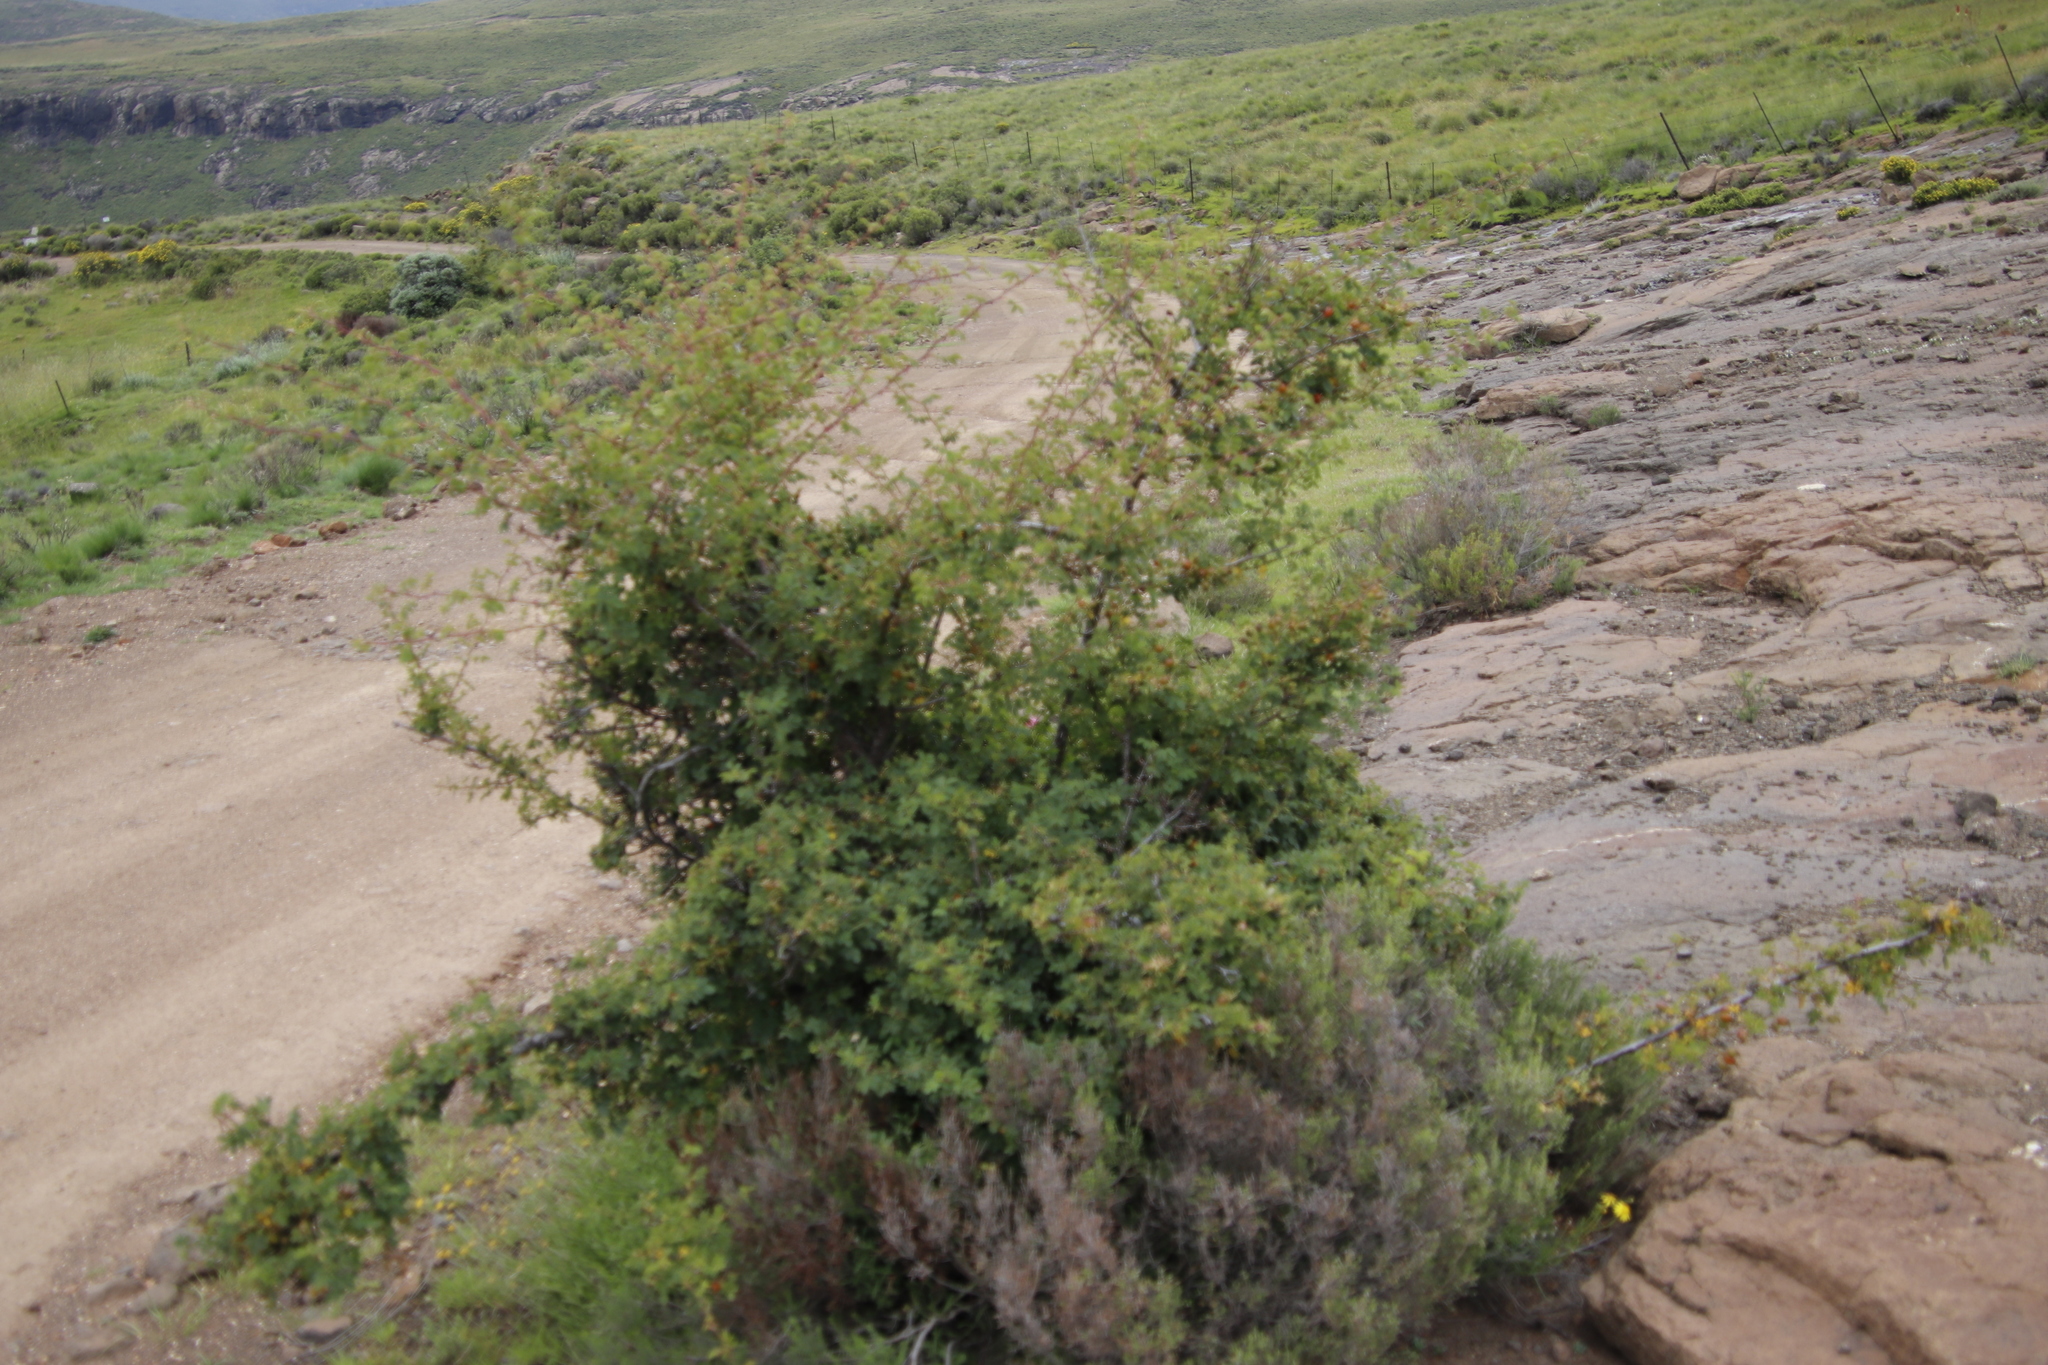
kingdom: Plantae
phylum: Tracheophyta
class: Magnoliopsida
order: Rosales
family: Rosaceae
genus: Rosa
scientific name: Rosa rubiginosa
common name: Sweet-briar
